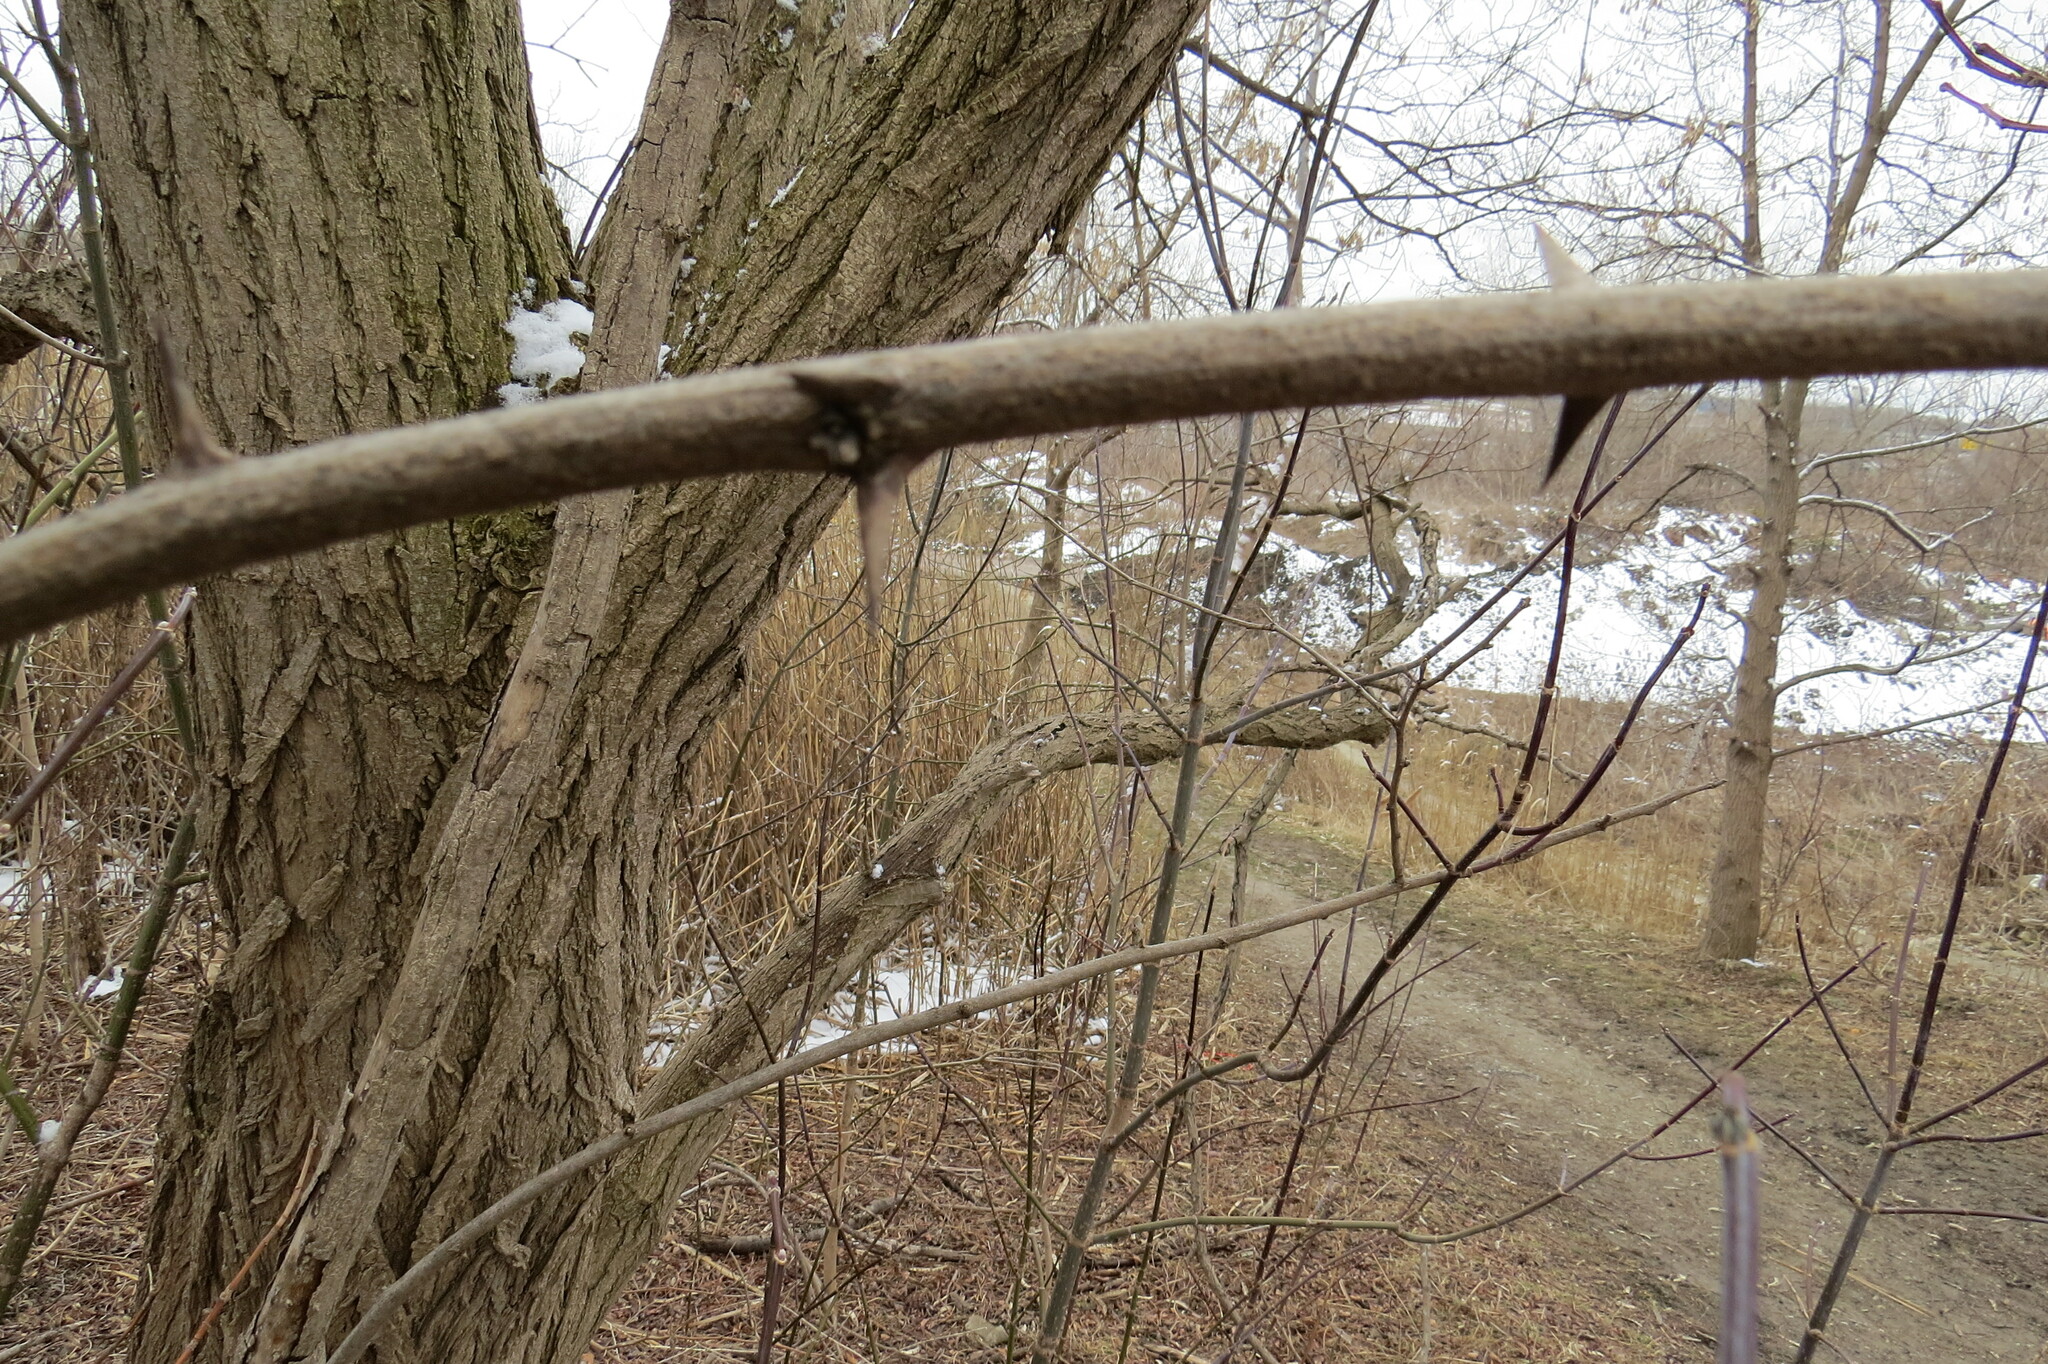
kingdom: Plantae
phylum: Tracheophyta
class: Magnoliopsida
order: Fabales
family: Fabaceae
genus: Robinia
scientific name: Robinia pseudoacacia
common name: Black locust
